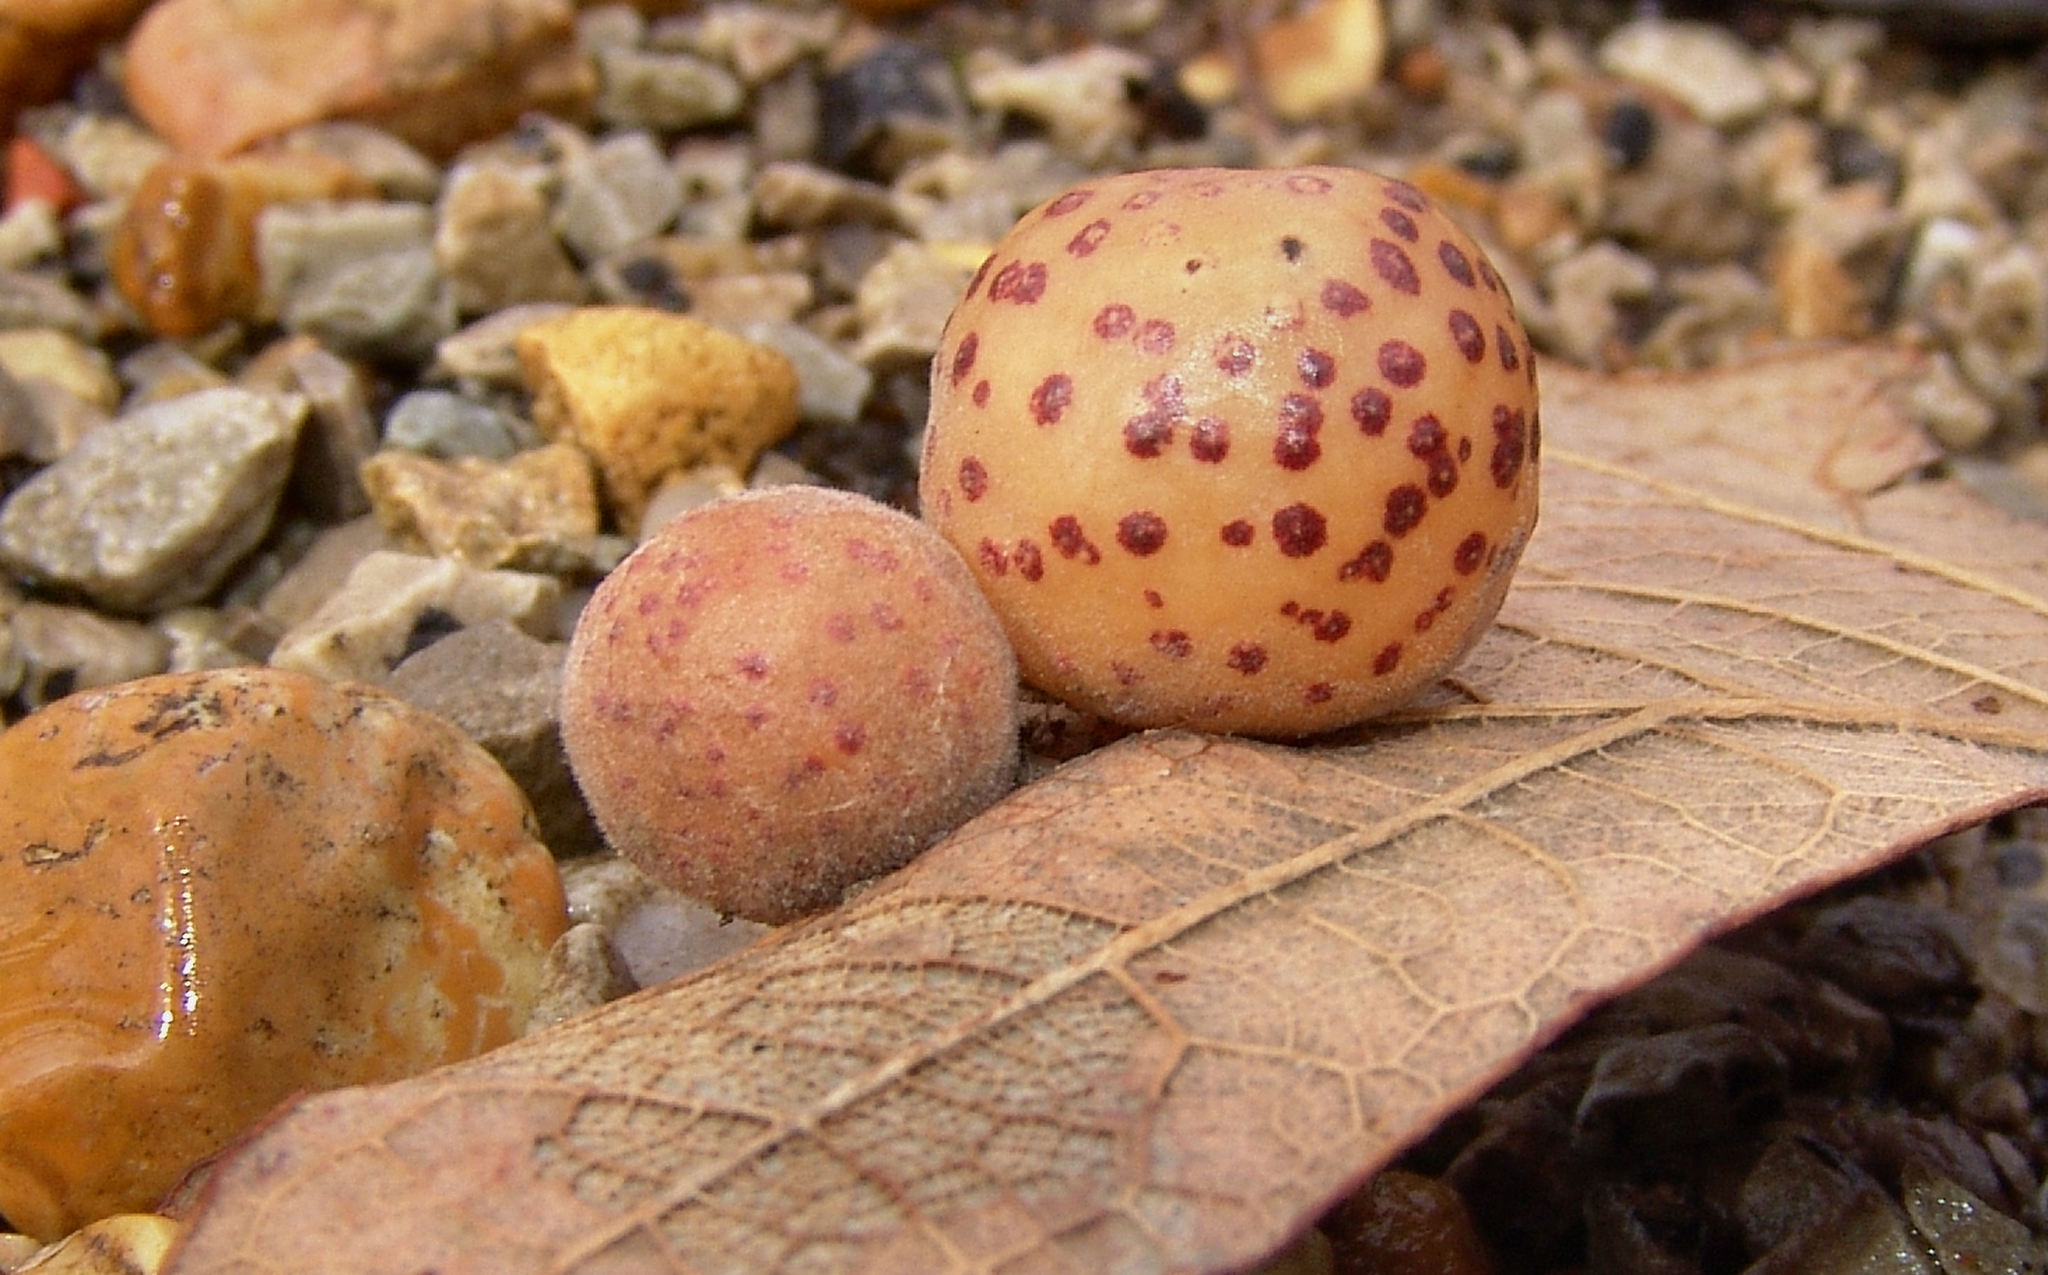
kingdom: Animalia
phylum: Arthropoda
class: Insecta
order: Hymenoptera
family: Cynipidae
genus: Atrusca
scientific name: Atrusca
